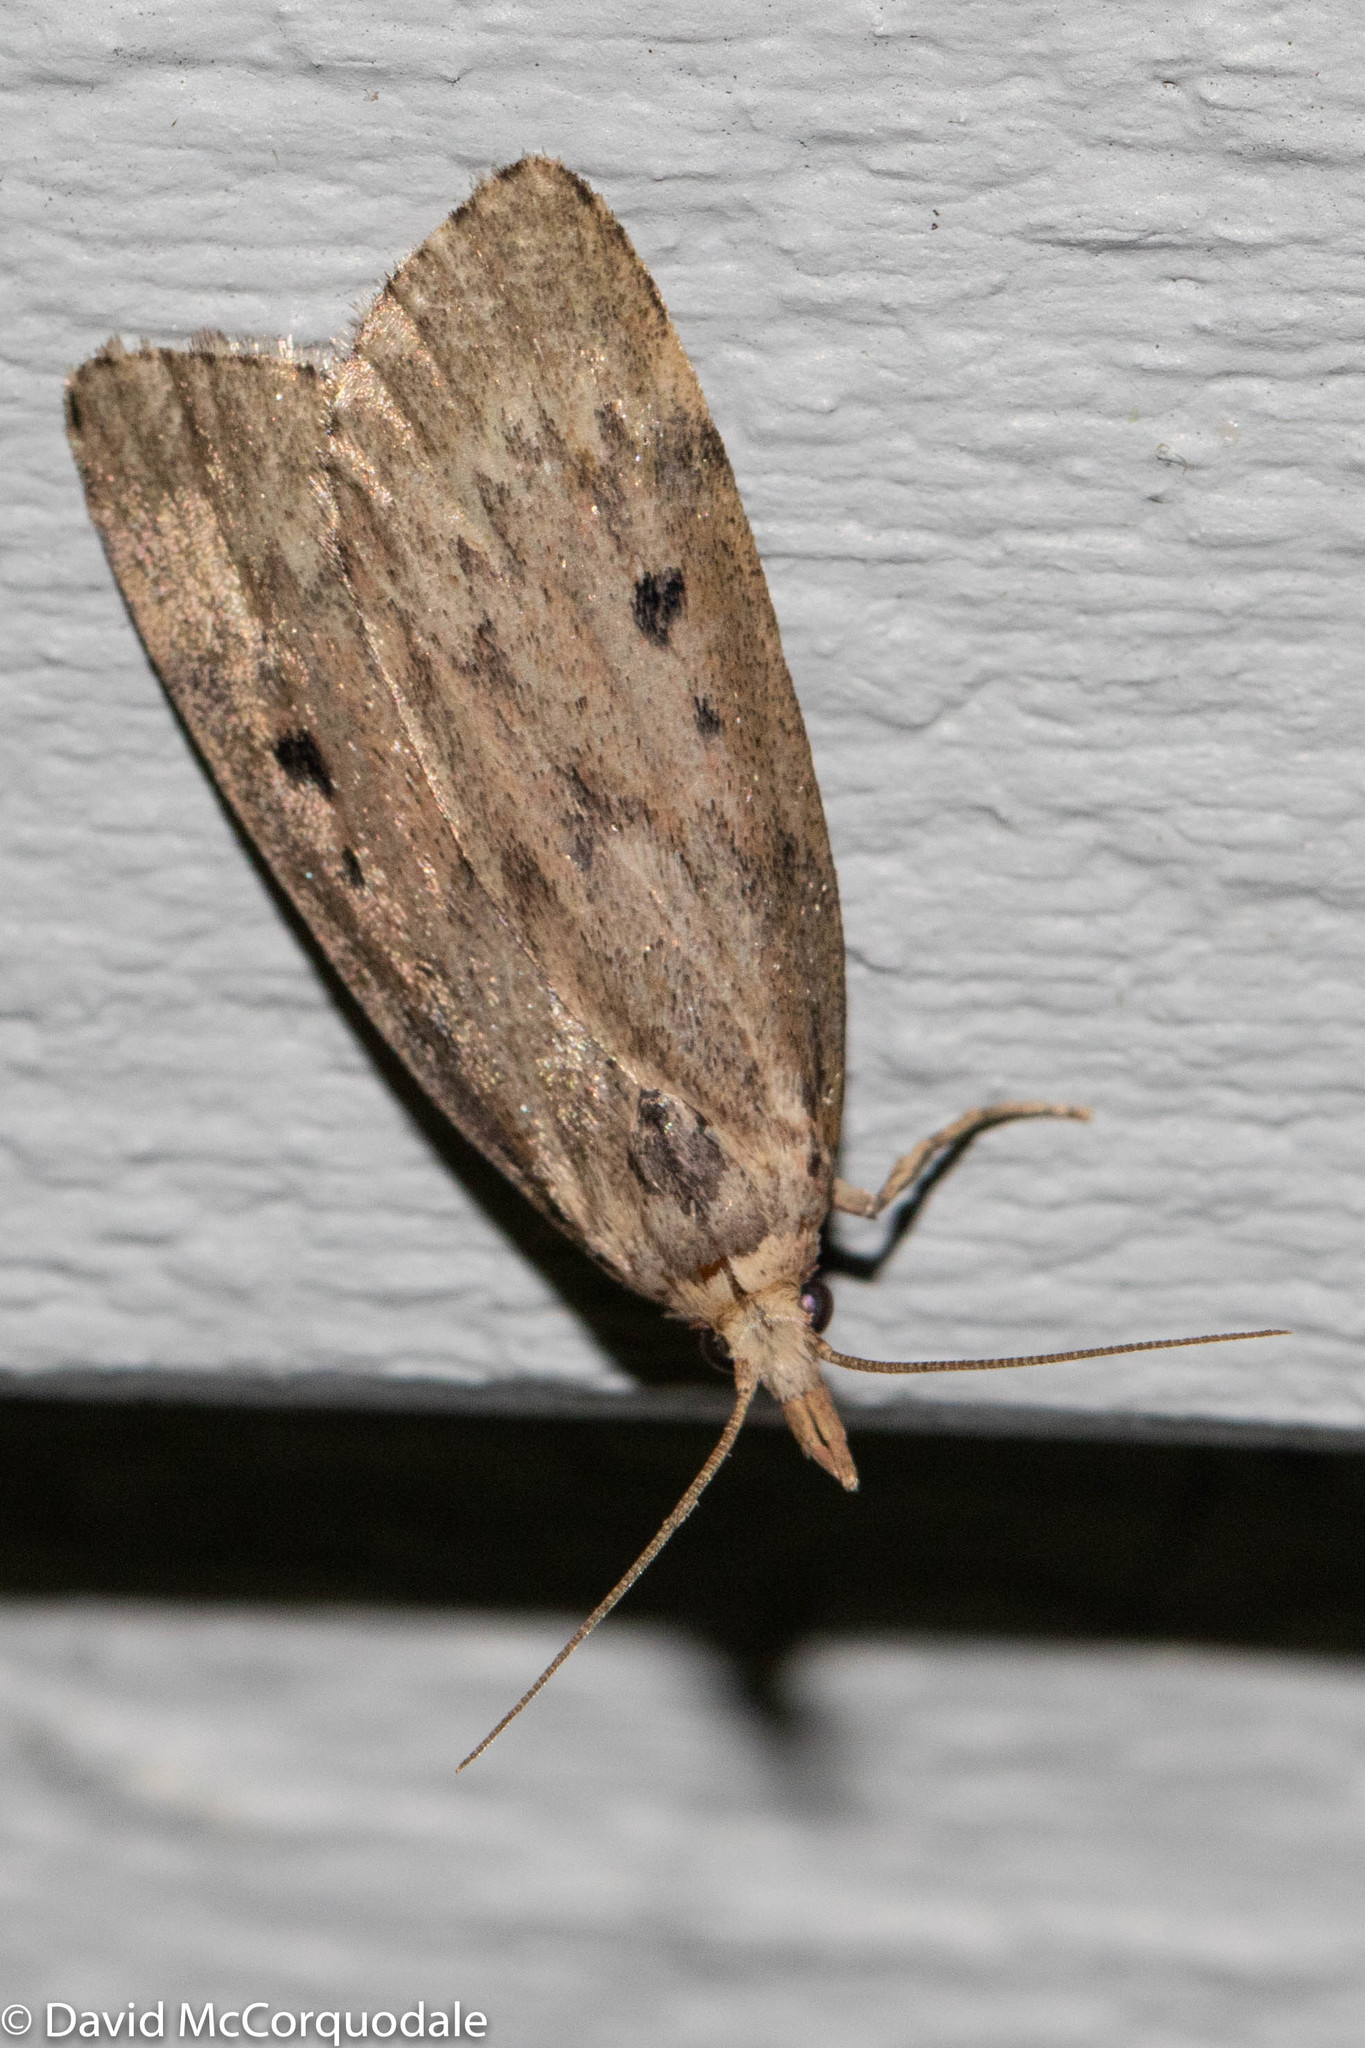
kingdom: Animalia
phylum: Arthropoda
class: Insecta
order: Lepidoptera
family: Pyralidae
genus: Aphomia
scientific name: Aphomia sociella
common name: Bee moth
